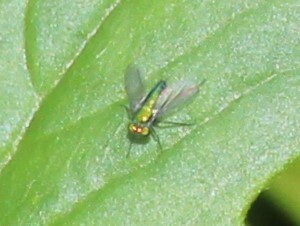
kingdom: Animalia
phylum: Arthropoda
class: Insecta
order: Diptera
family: Dolichopodidae
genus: Condylostylus
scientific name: Condylostylus
